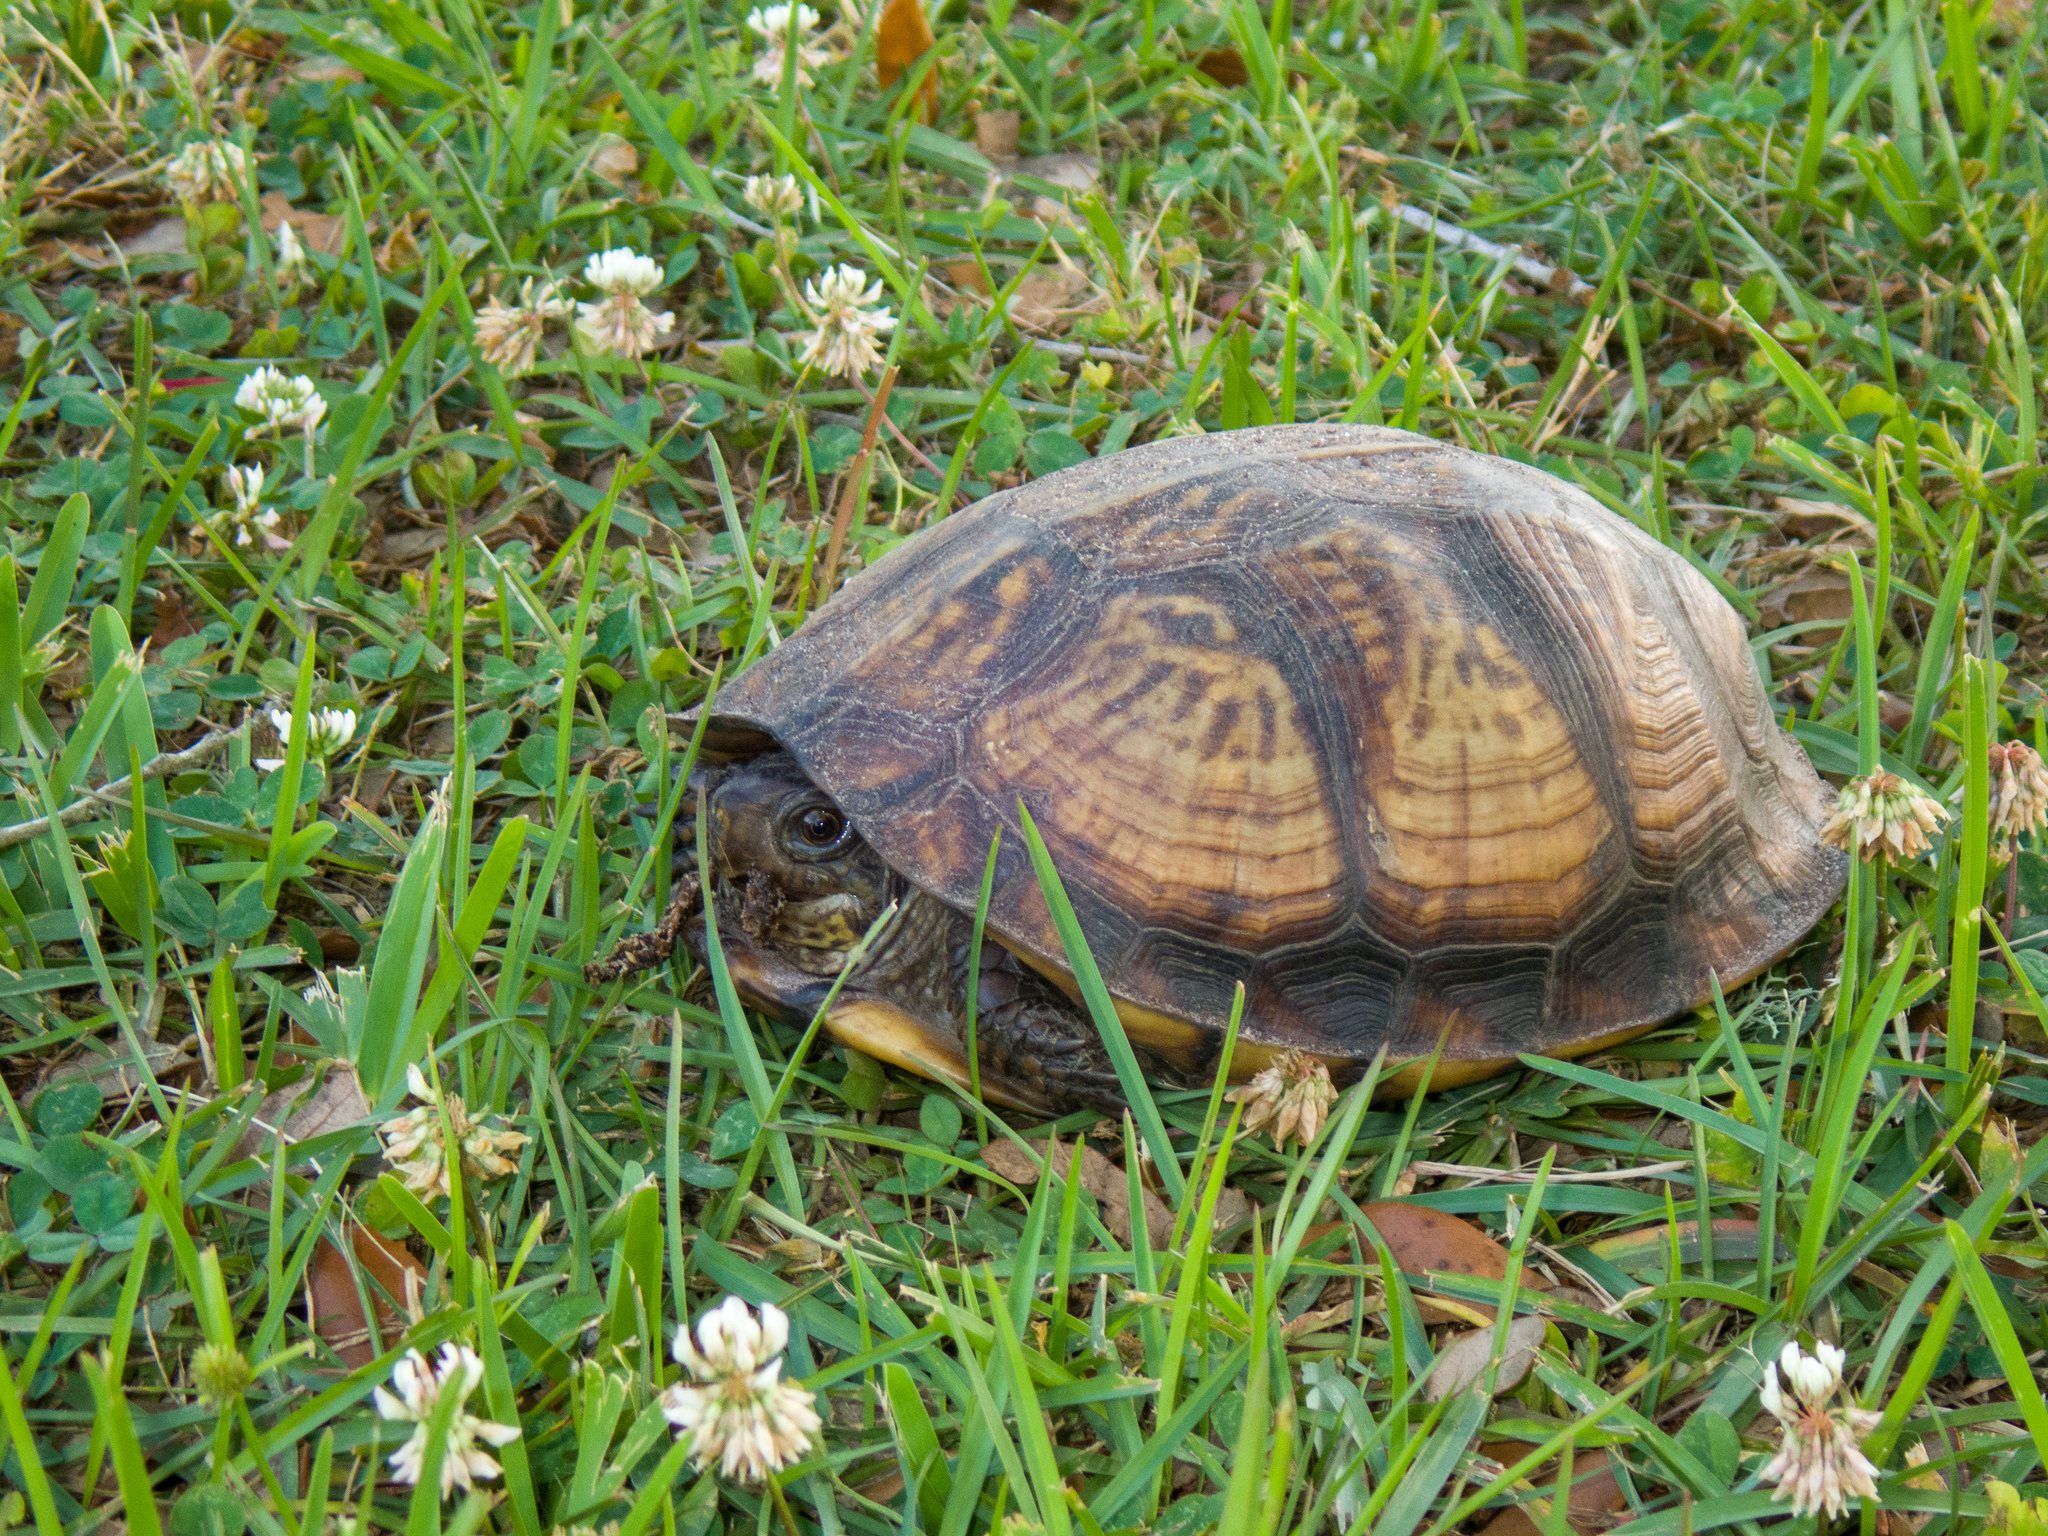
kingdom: Animalia
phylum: Chordata
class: Testudines
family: Emydidae
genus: Terrapene
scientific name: Terrapene carolina
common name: Common box turtle
